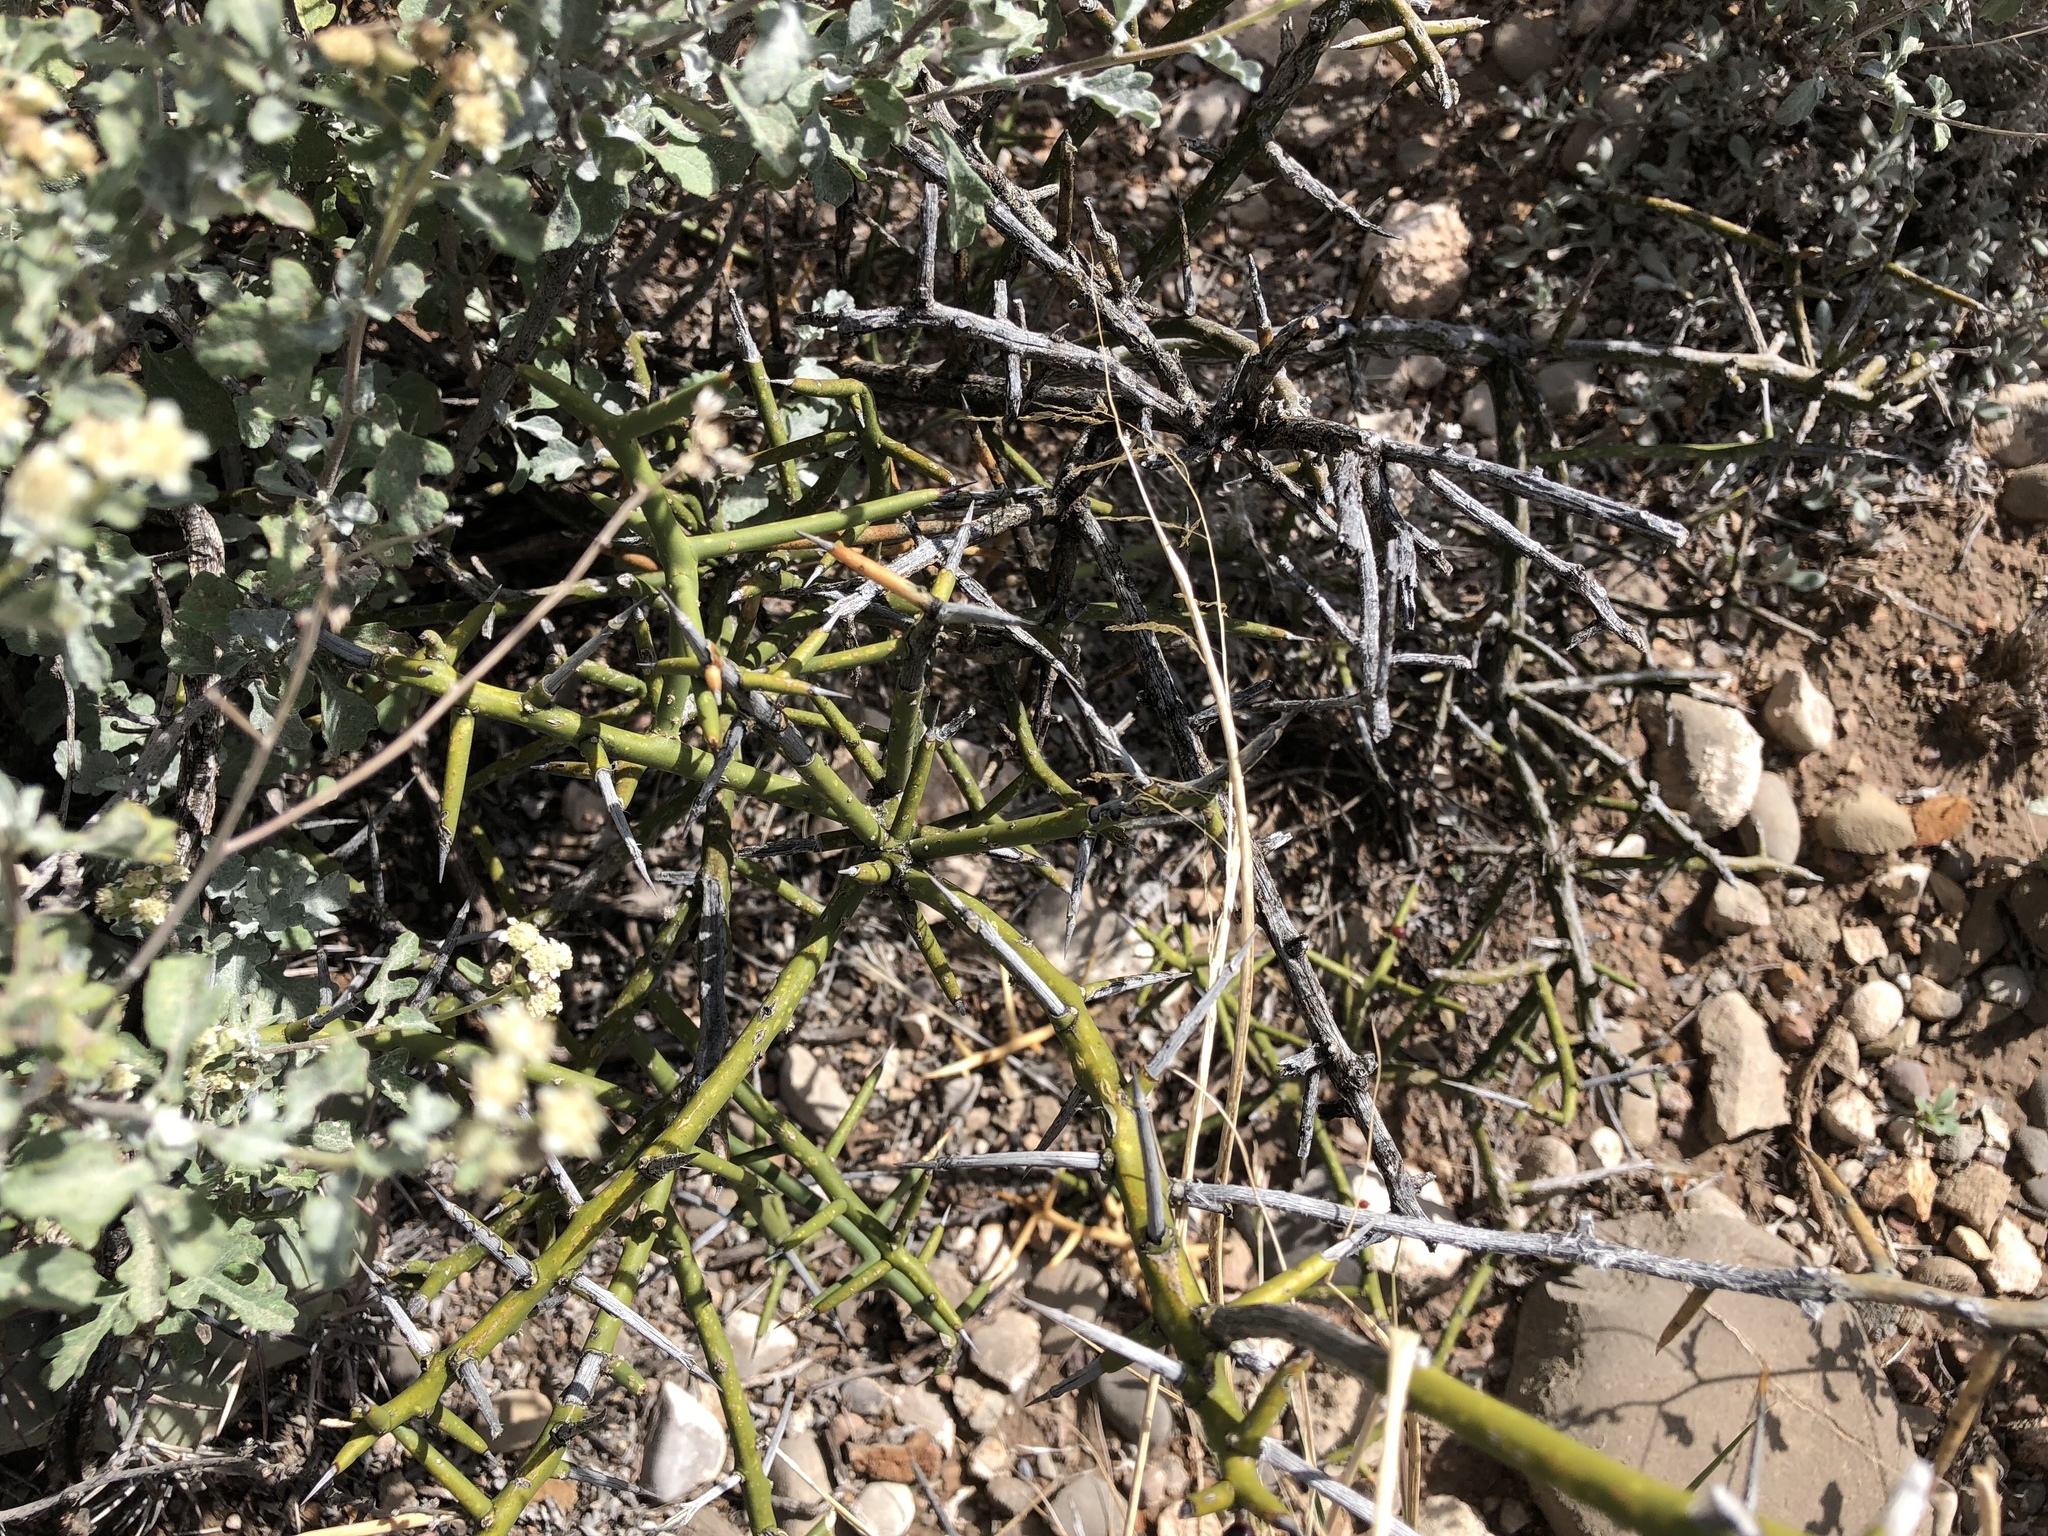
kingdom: Plantae
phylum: Tracheophyta
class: Magnoliopsida
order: Brassicales
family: Koeberliniaceae
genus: Koeberlinia
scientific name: Koeberlinia spinosa
